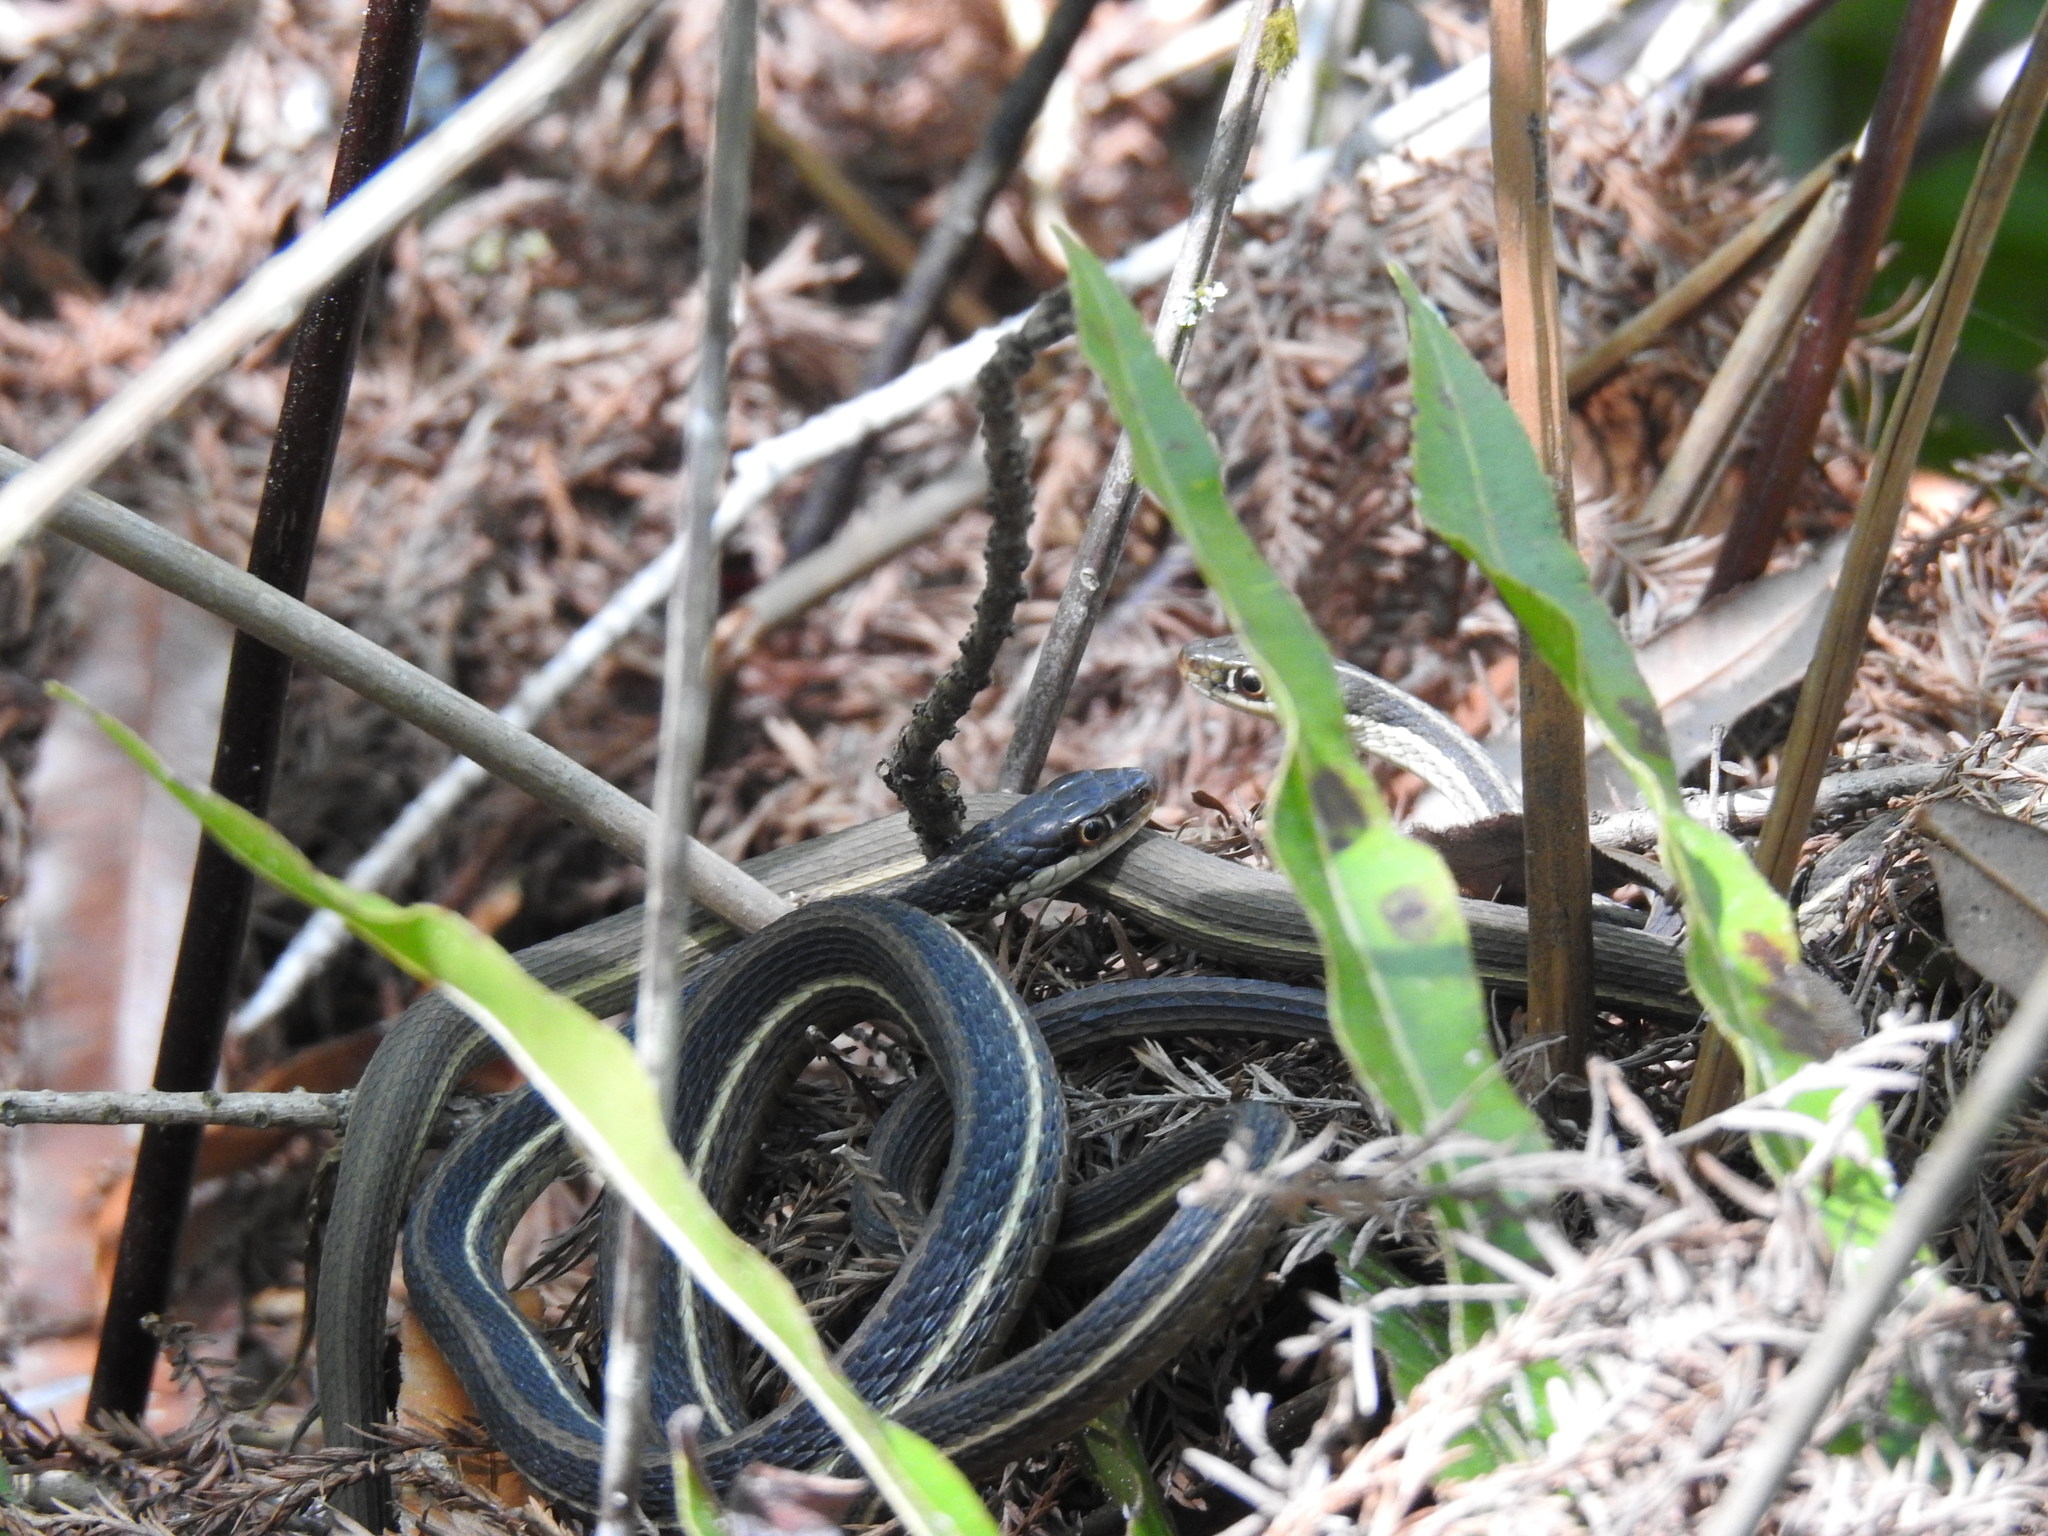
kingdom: Animalia
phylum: Chordata
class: Squamata
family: Colubridae
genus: Thamnophis
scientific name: Thamnophis saurita
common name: Eastern ribbonsnake
